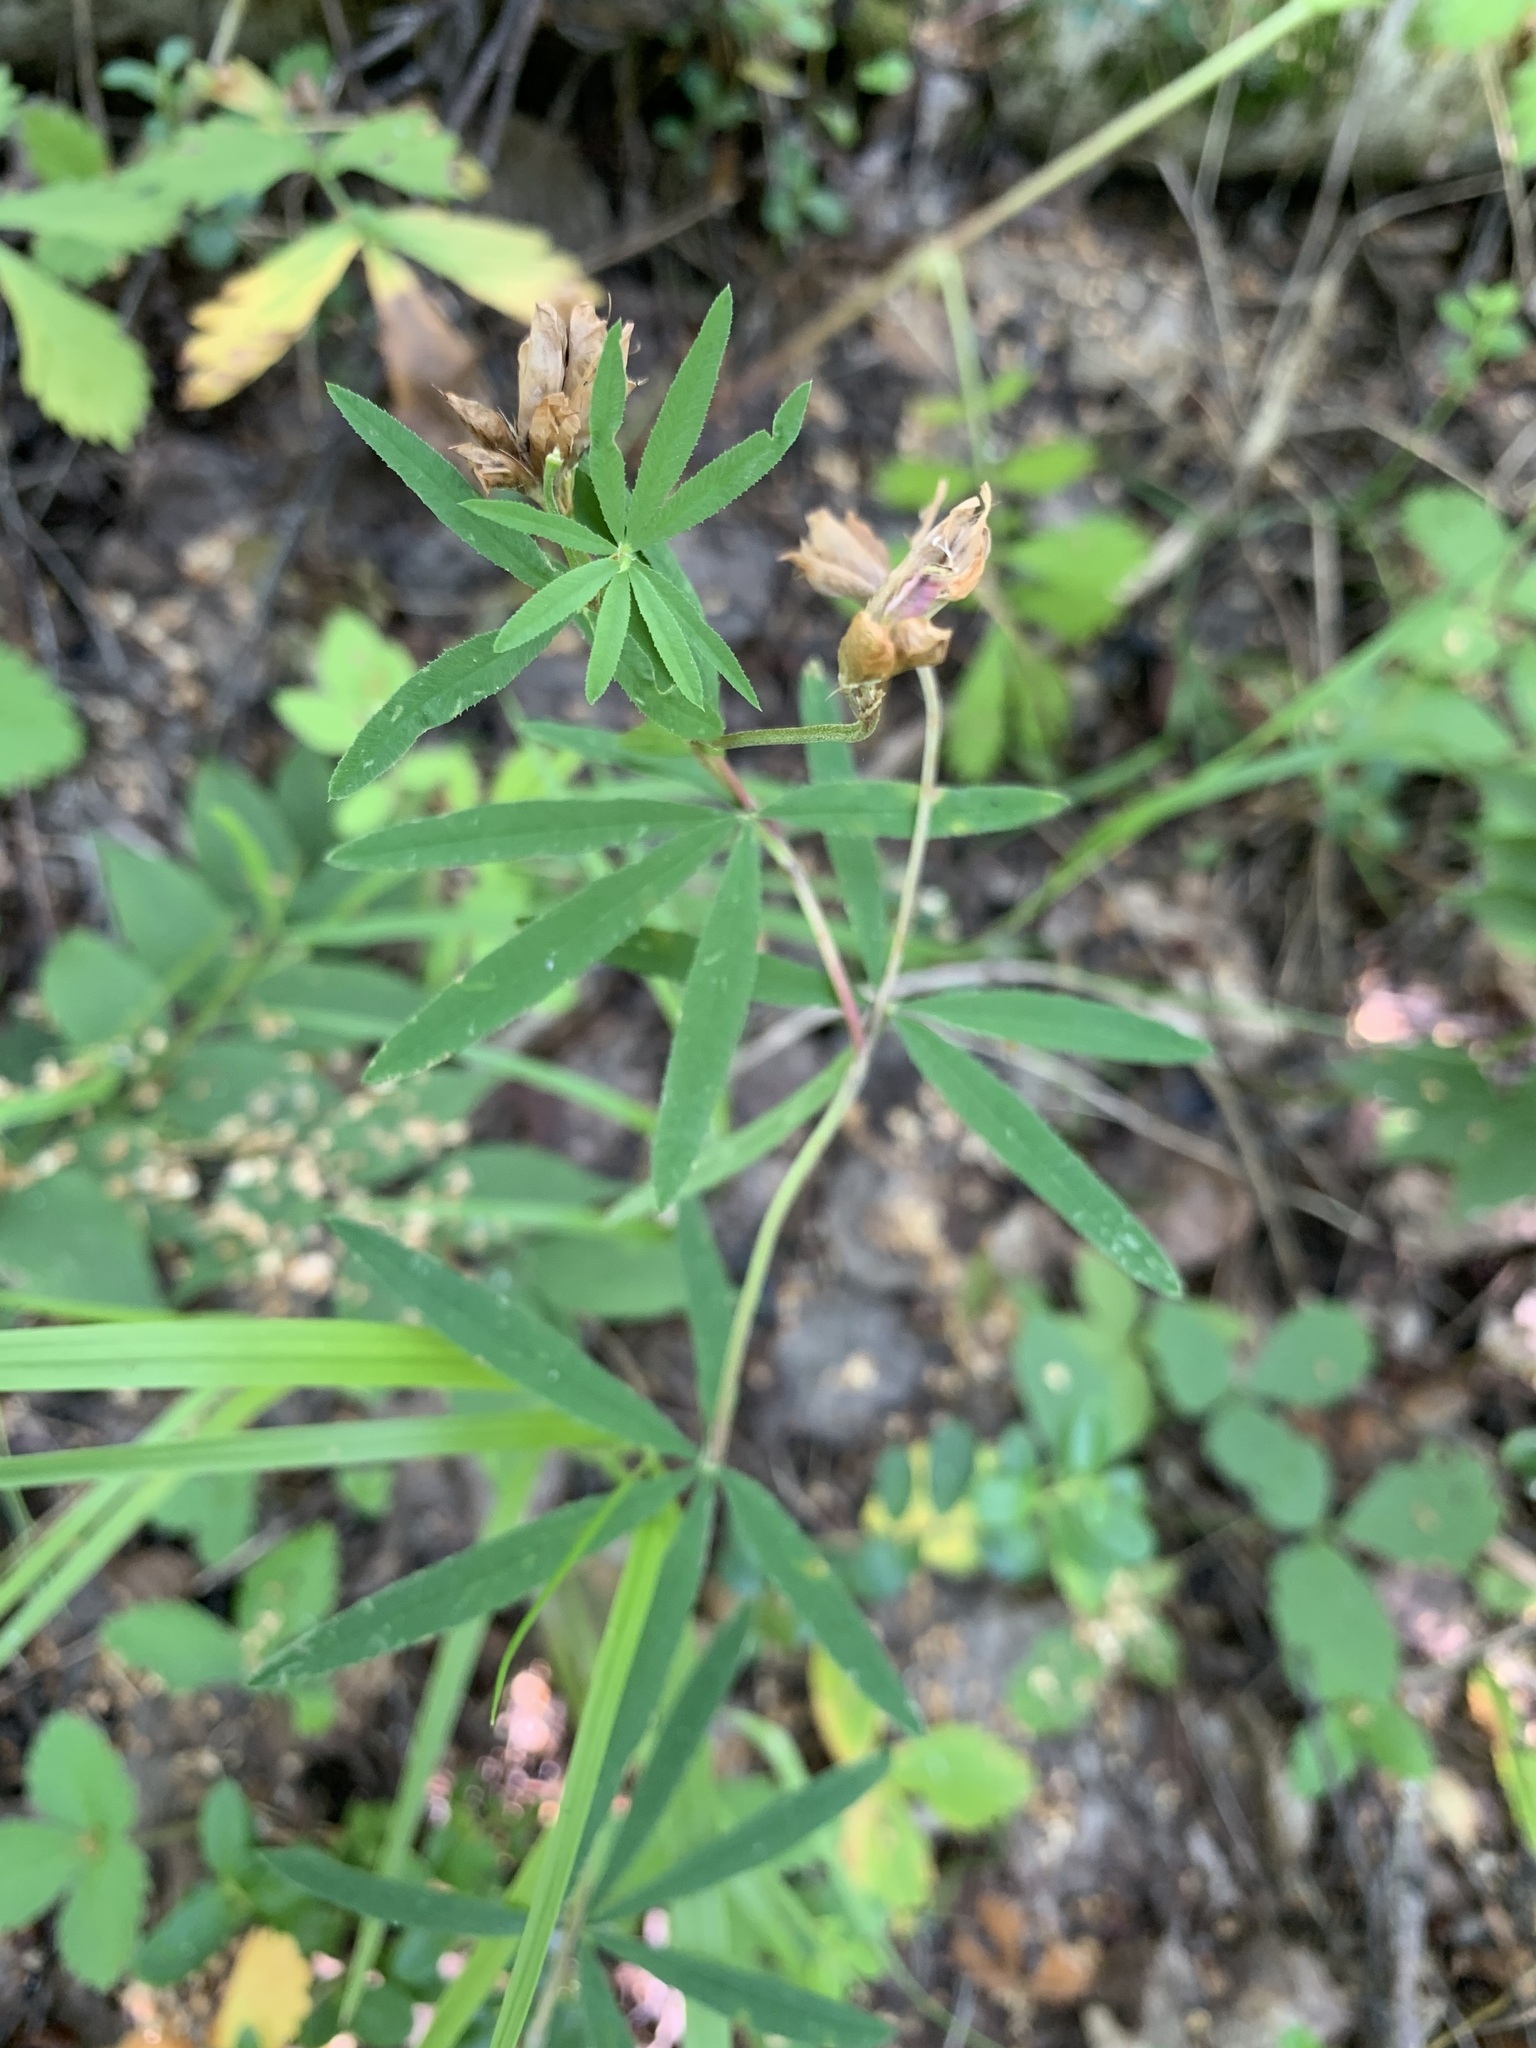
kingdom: Plantae
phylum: Tracheophyta
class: Magnoliopsida
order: Fabales
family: Fabaceae
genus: Trifolium
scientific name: Trifolium lupinaster
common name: Lupine clover
